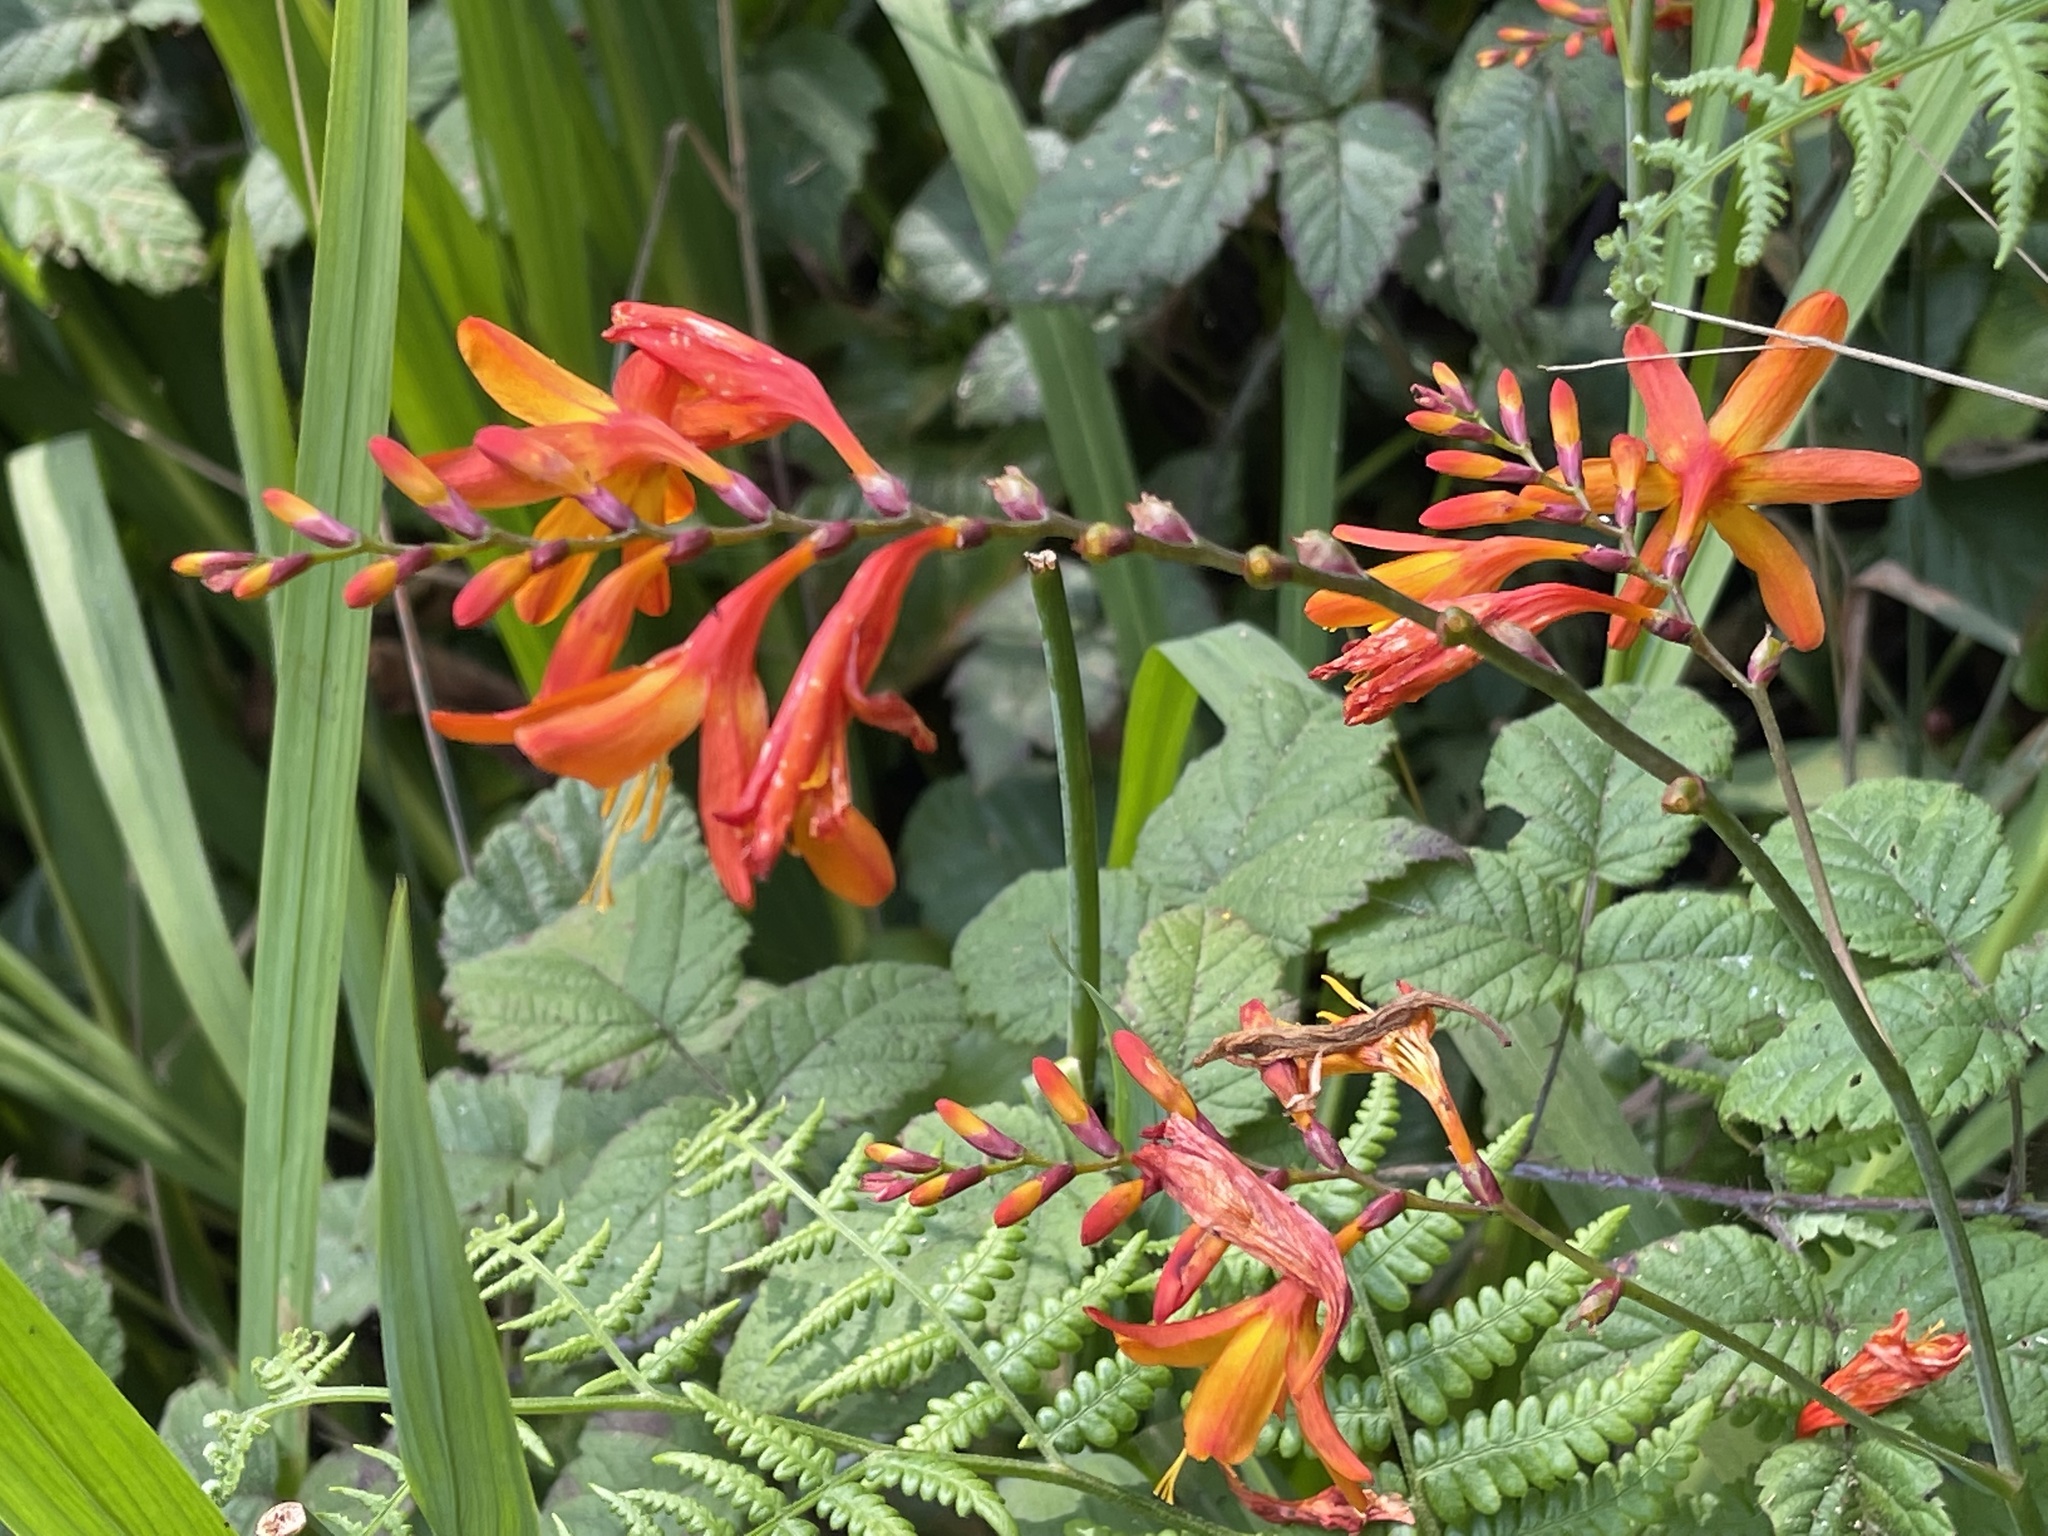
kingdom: Plantae
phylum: Tracheophyta
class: Liliopsida
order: Asparagales
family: Iridaceae
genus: Crocosmia
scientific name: Crocosmia crocosmiiflora
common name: Montbretia
